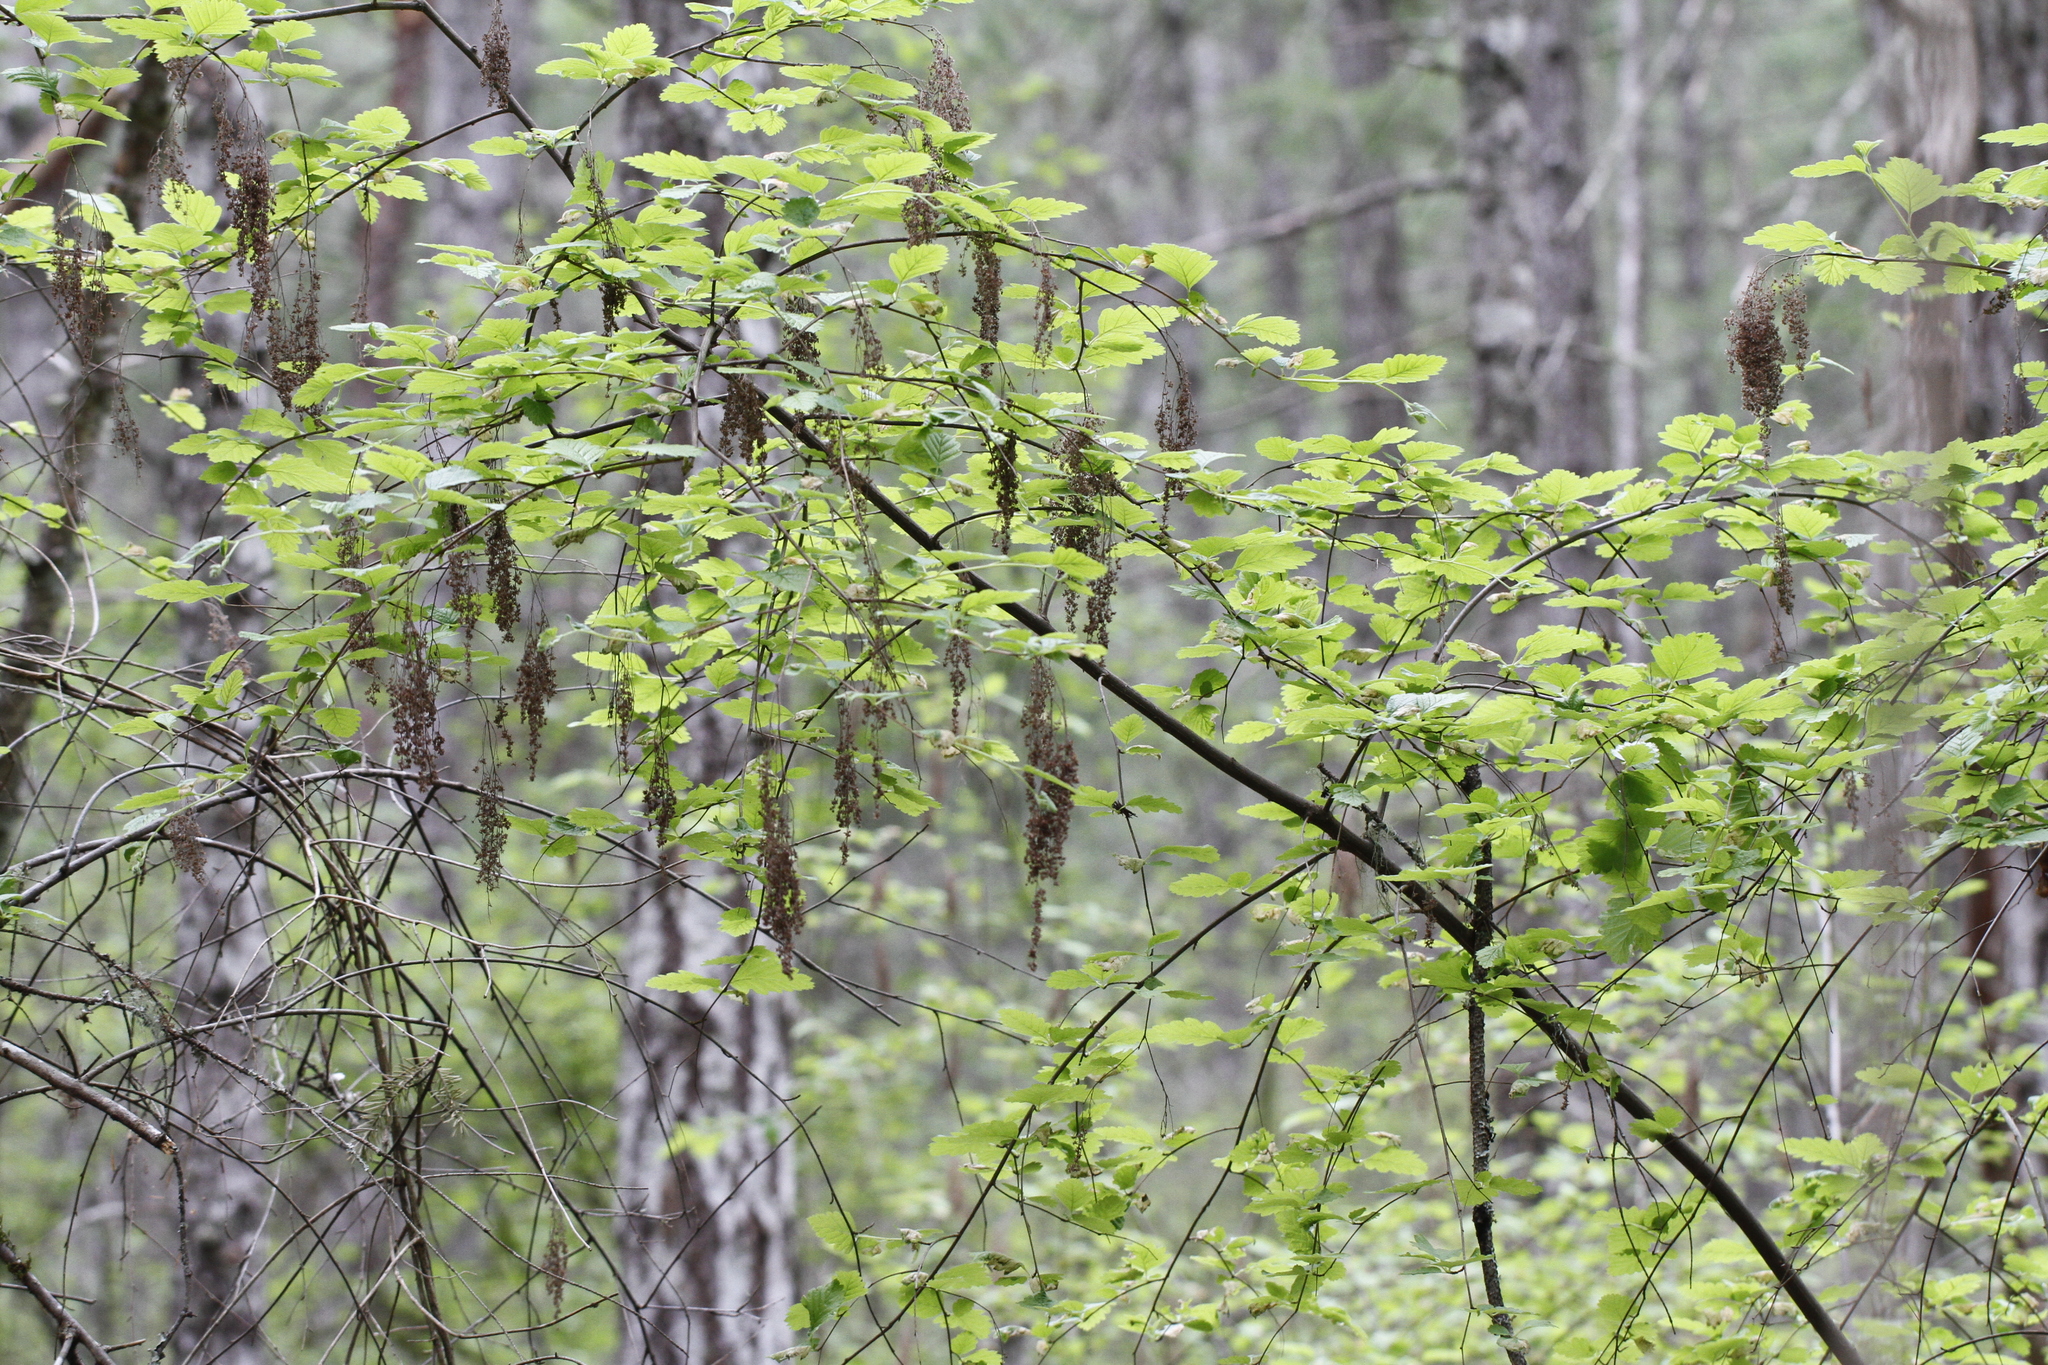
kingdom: Plantae
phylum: Tracheophyta
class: Magnoliopsida
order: Rosales
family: Rosaceae
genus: Holodiscus
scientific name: Holodiscus discolor
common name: Oceanspray
